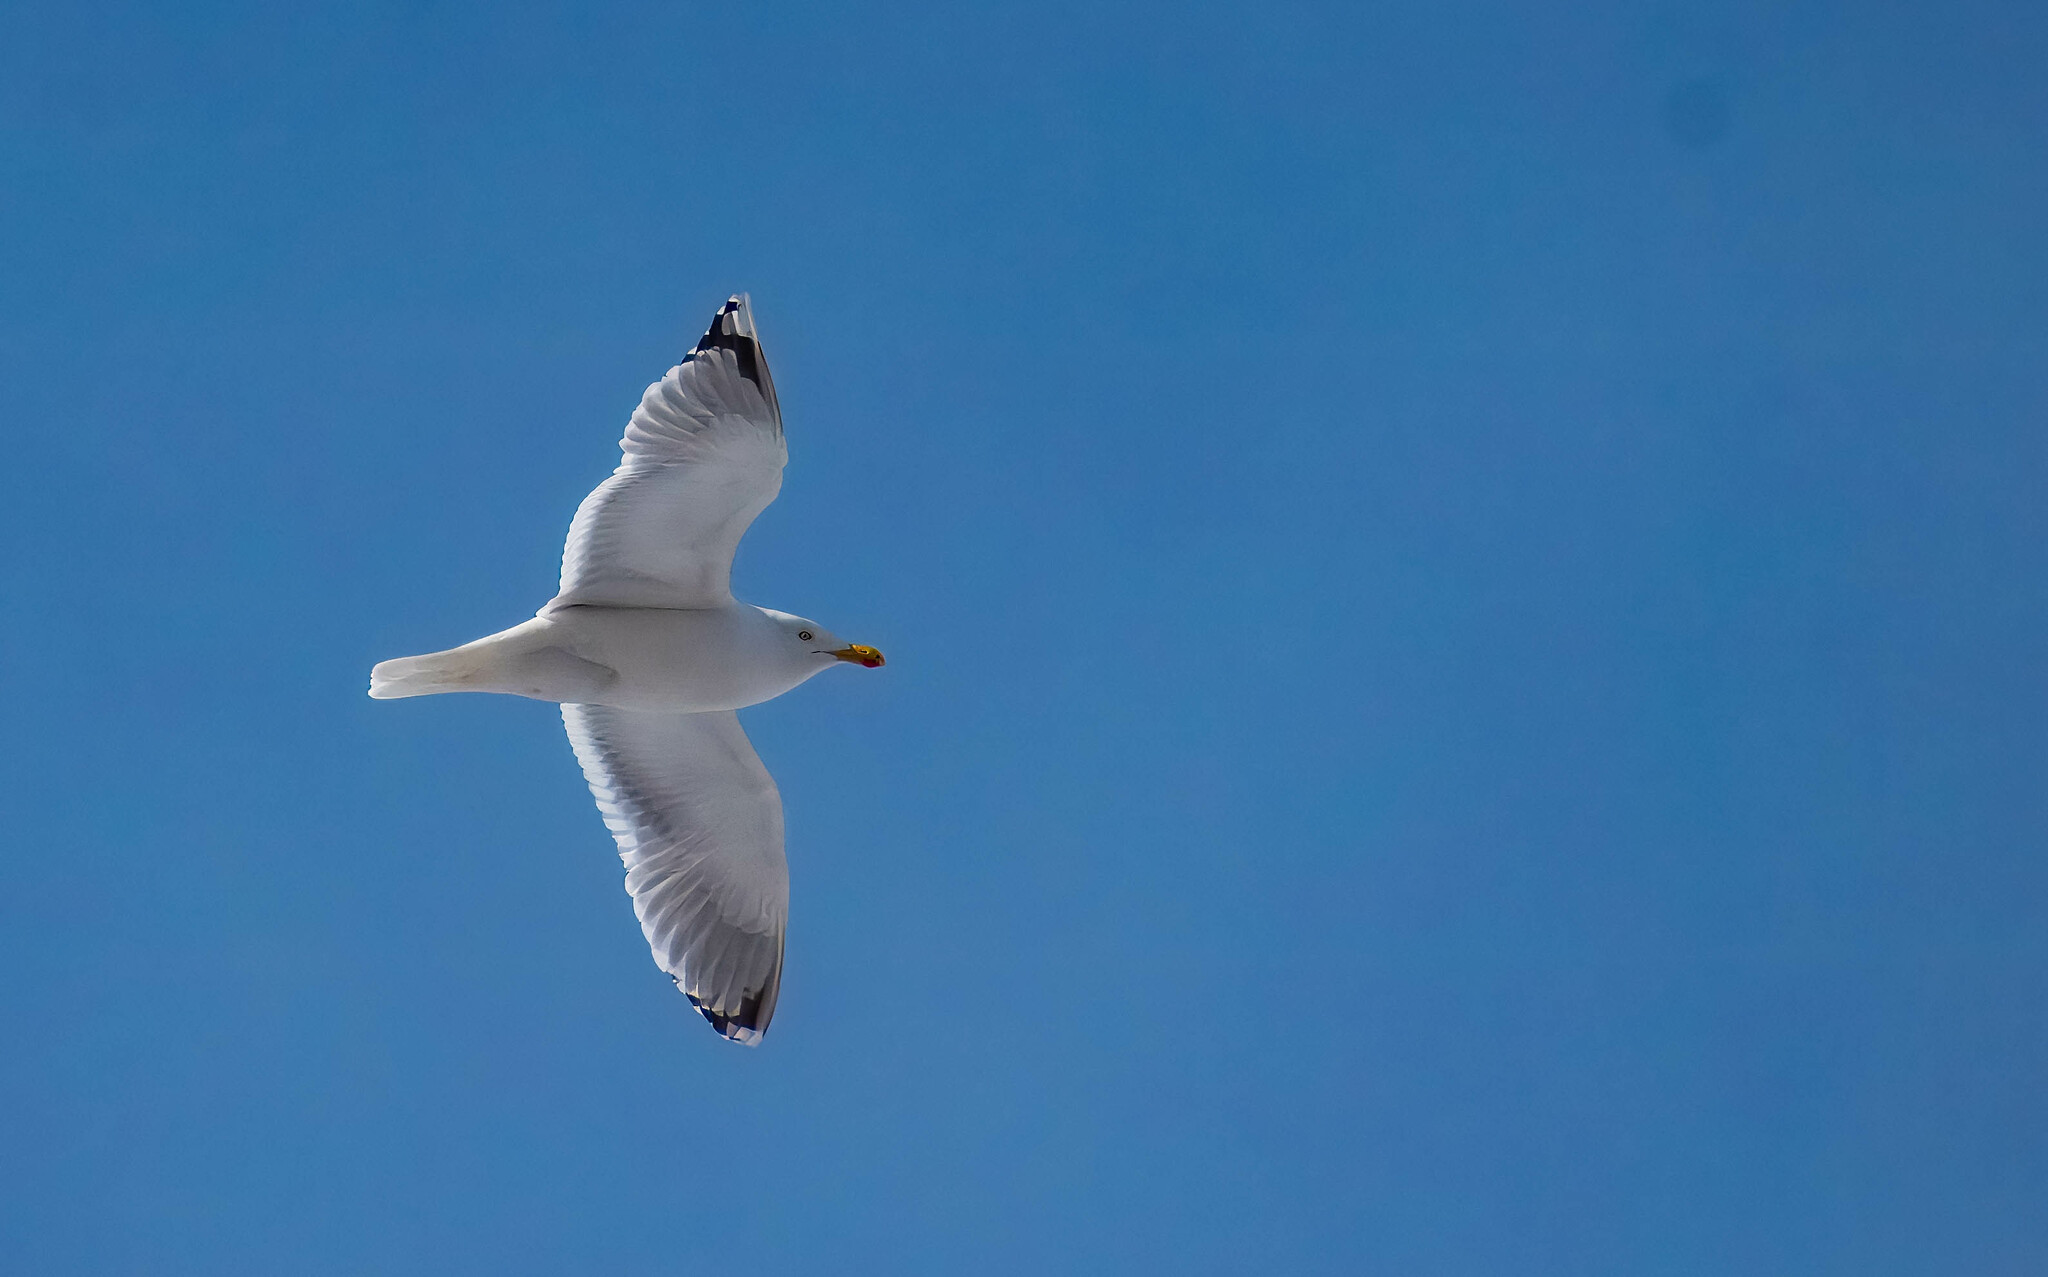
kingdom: Animalia
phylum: Chordata
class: Aves
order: Charadriiformes
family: Laridae
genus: Larus
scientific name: Larus cachinnans
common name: Caspian gull
